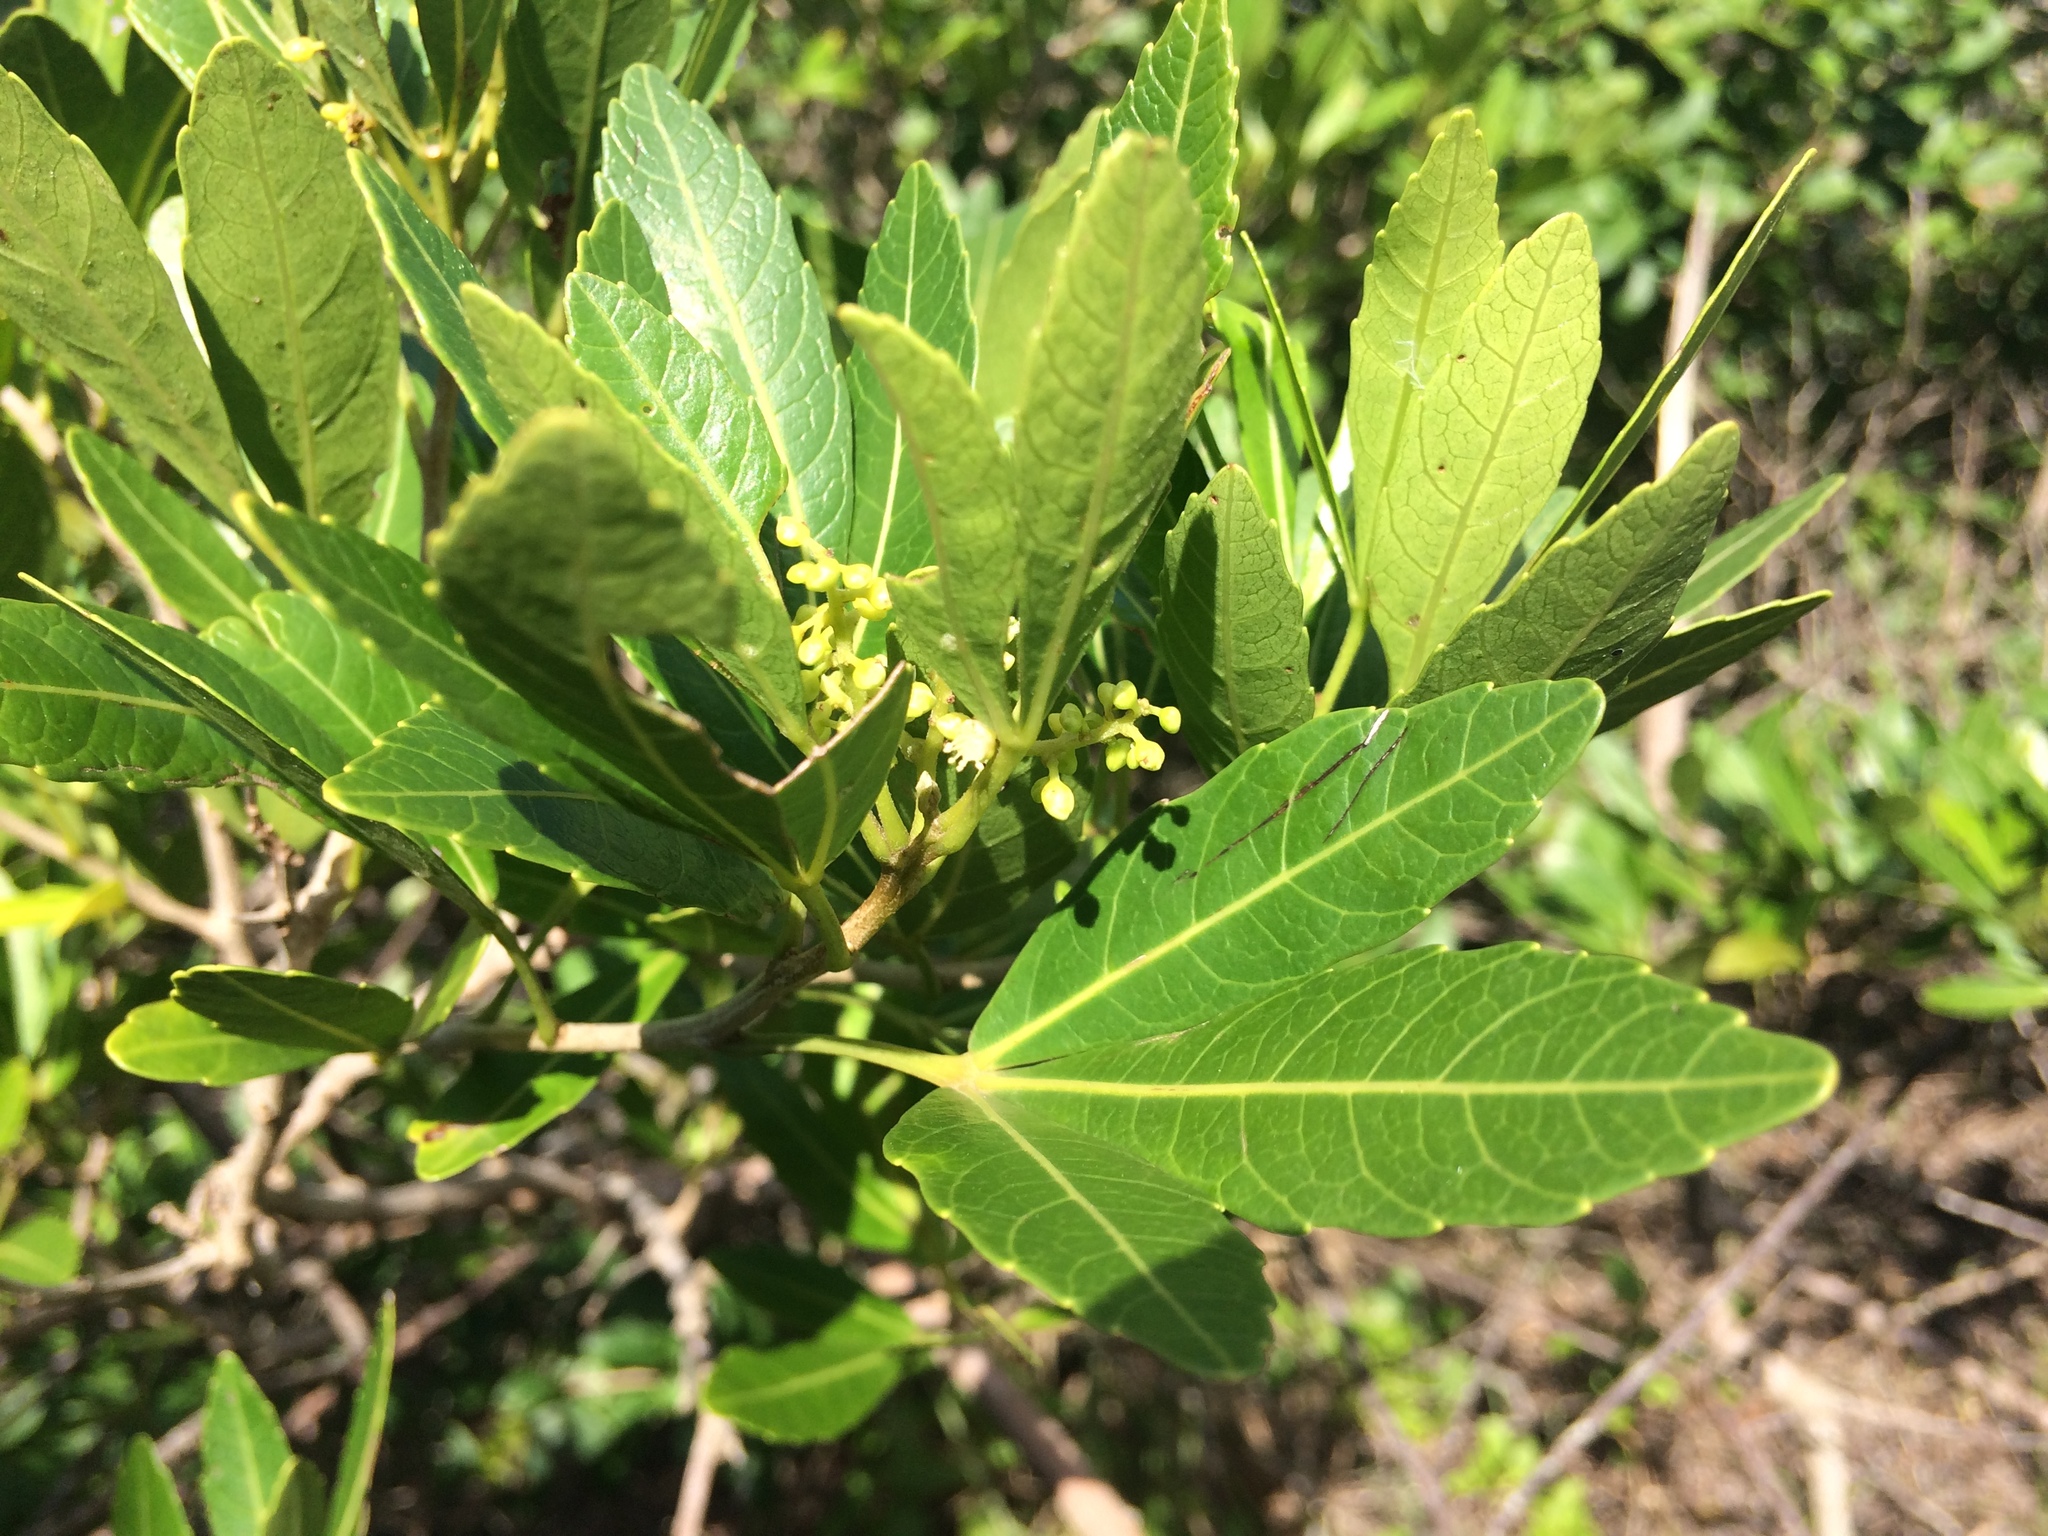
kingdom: Plantae
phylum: Tracheophyta
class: Magnoliopsida
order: Sapindales
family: Sapindaceae
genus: Allophylus
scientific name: Allophylus natalensis
